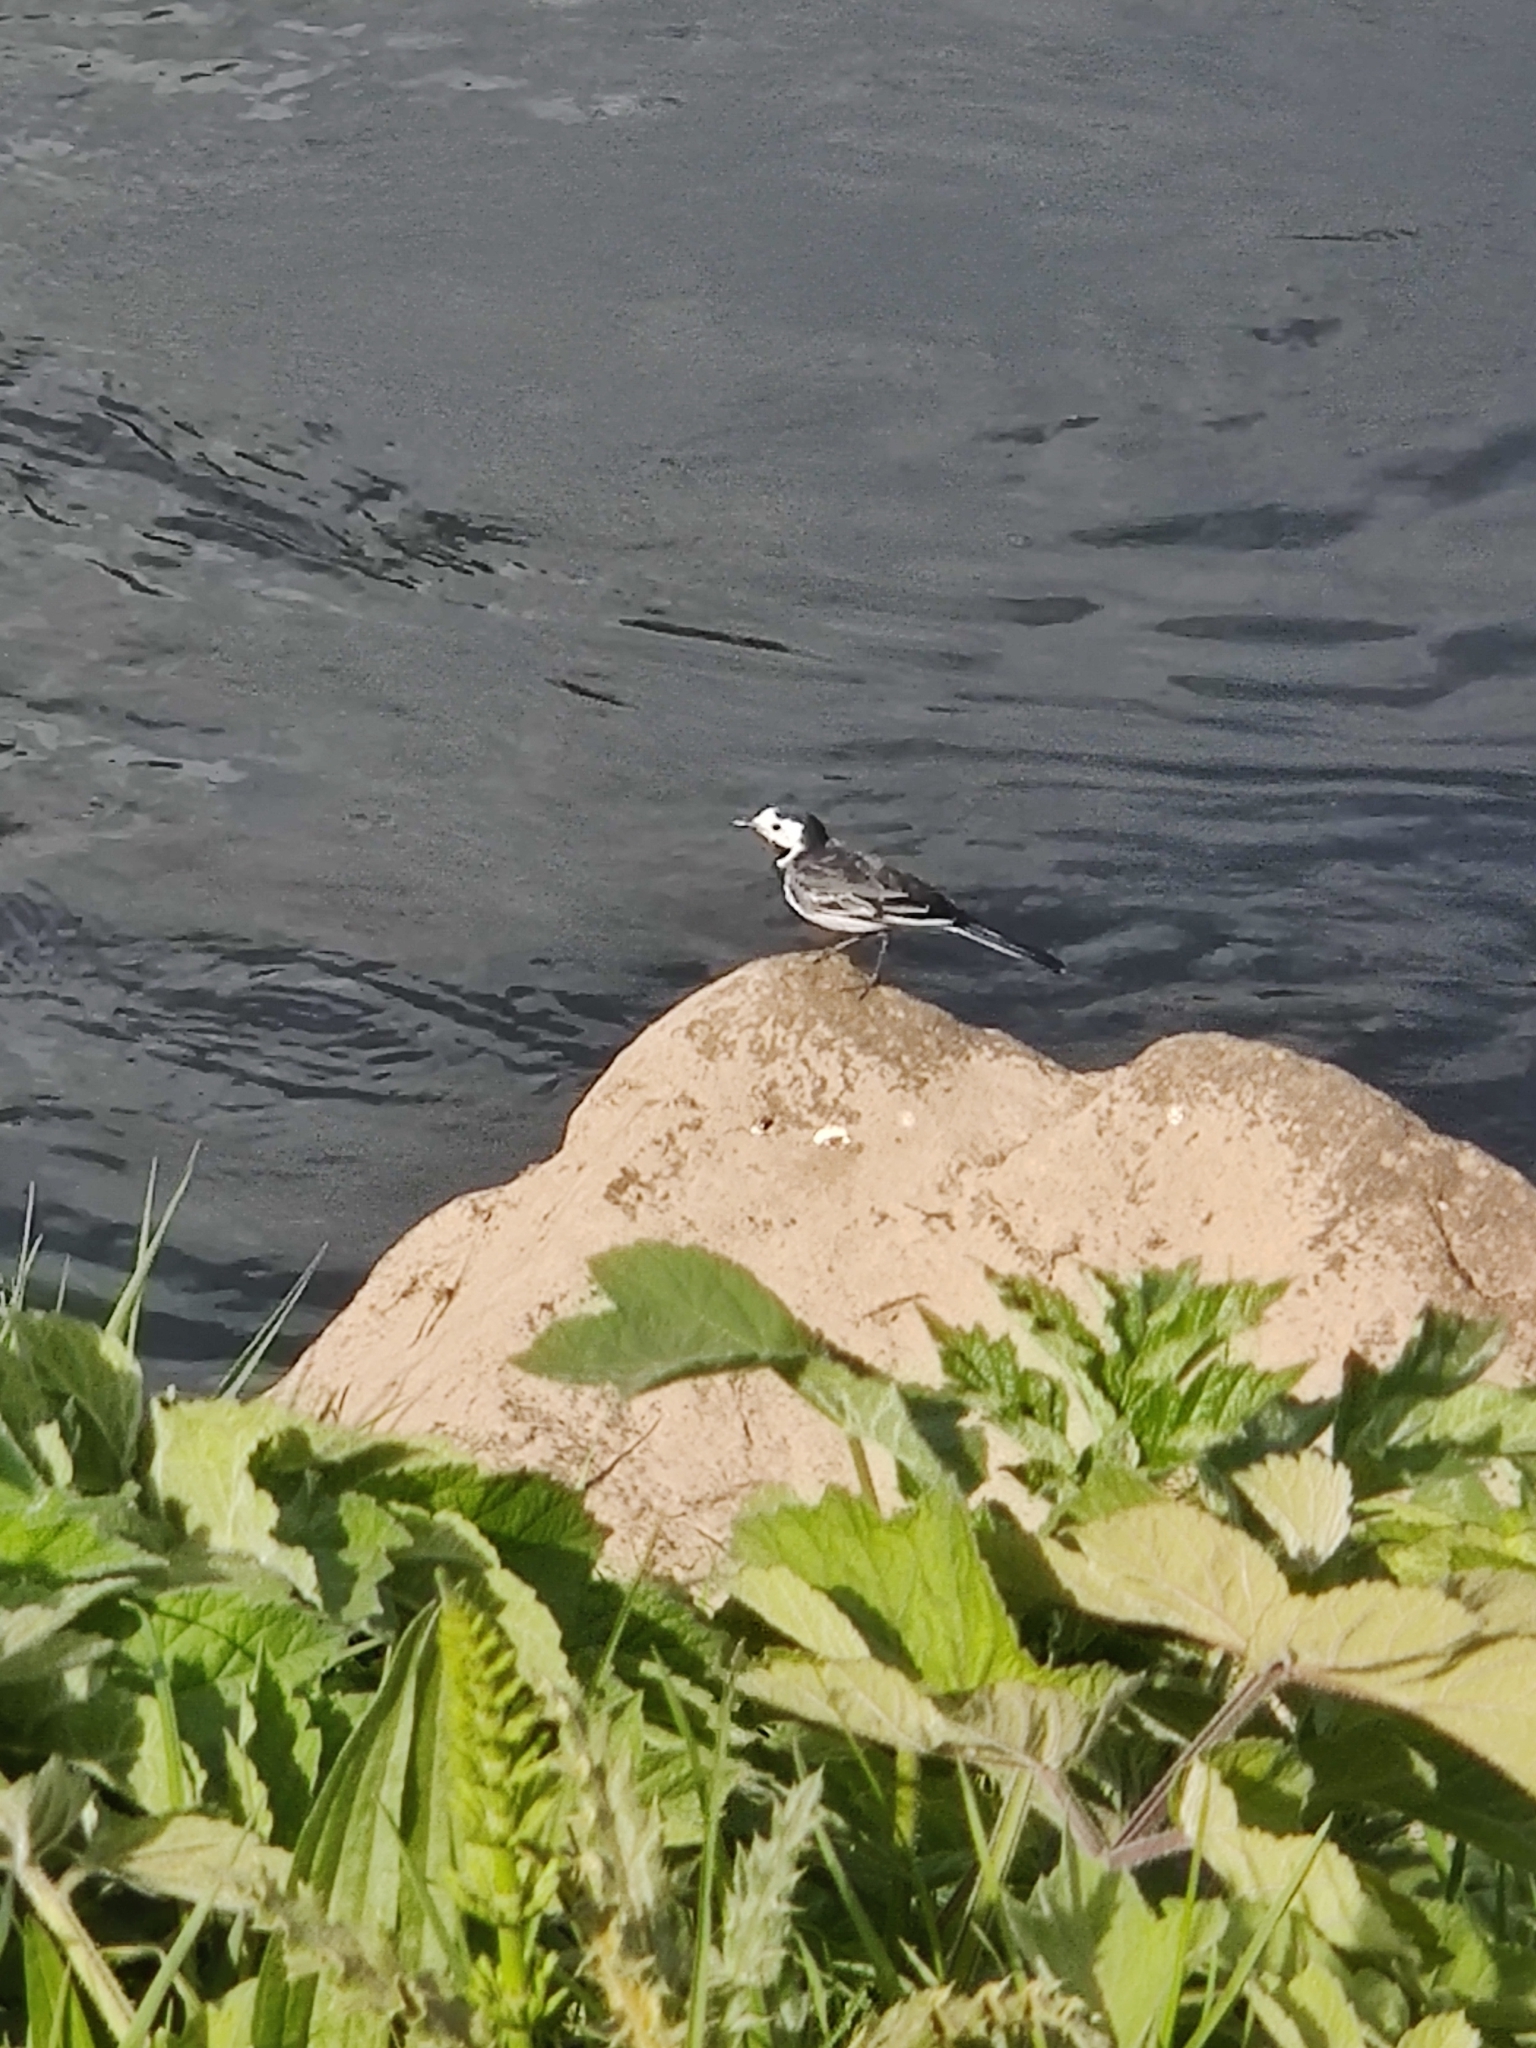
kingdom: Animalia
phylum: Chordata
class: Aves
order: Passeriformes
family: Motacillidae
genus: Motacilla
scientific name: Motacilla alba
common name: White wagtail
